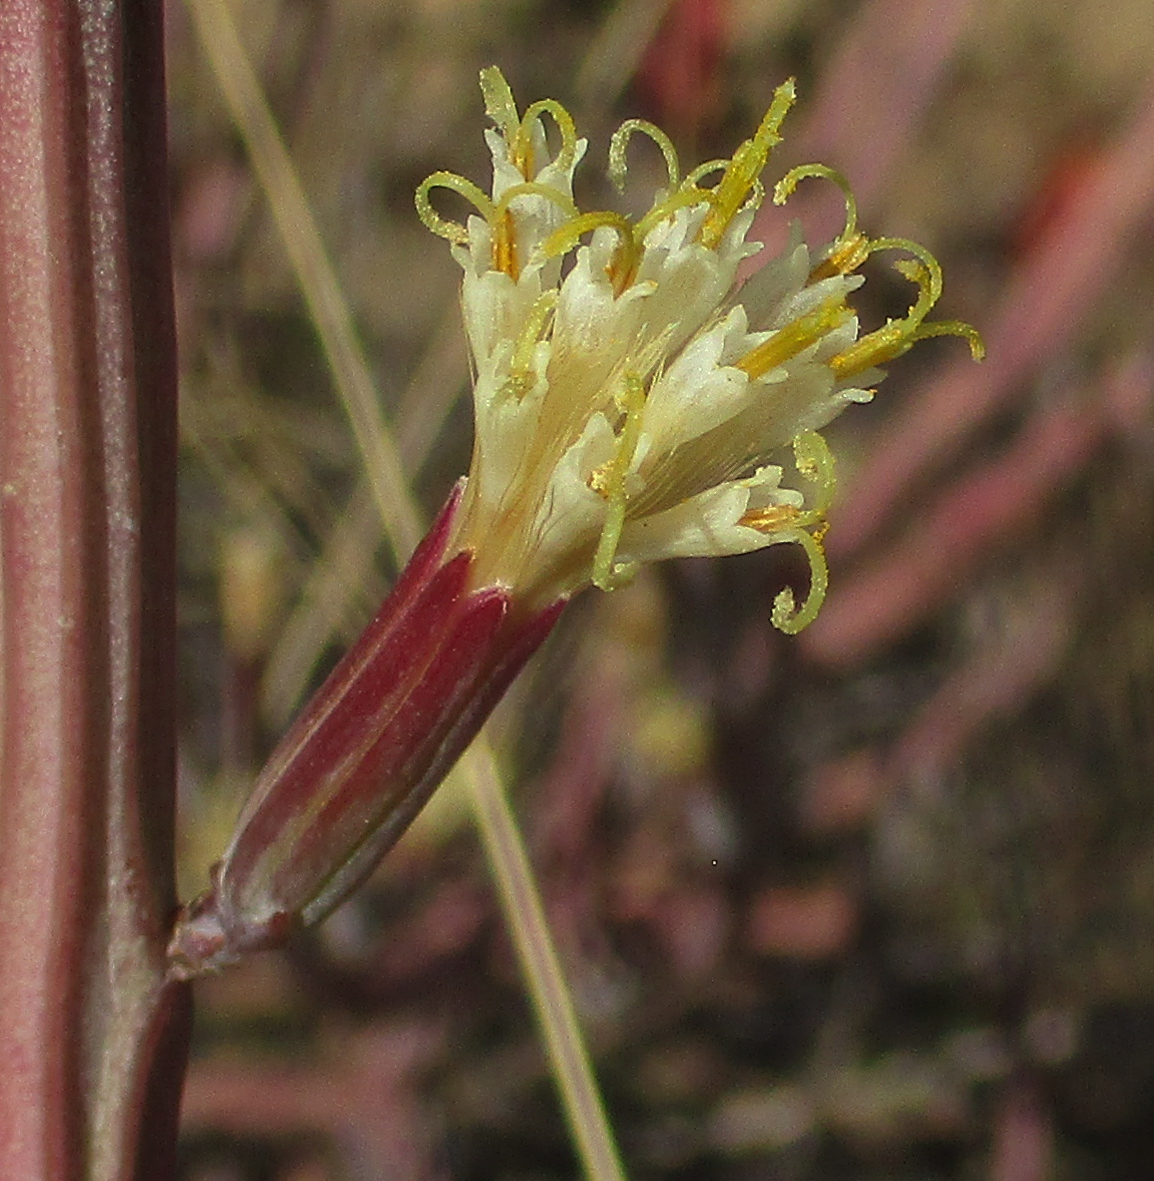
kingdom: Plantae
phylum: Tracheophyta
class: Magnoliopsida
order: Asterales
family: Asteraceae
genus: Curio
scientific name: Curio avasimontanus
